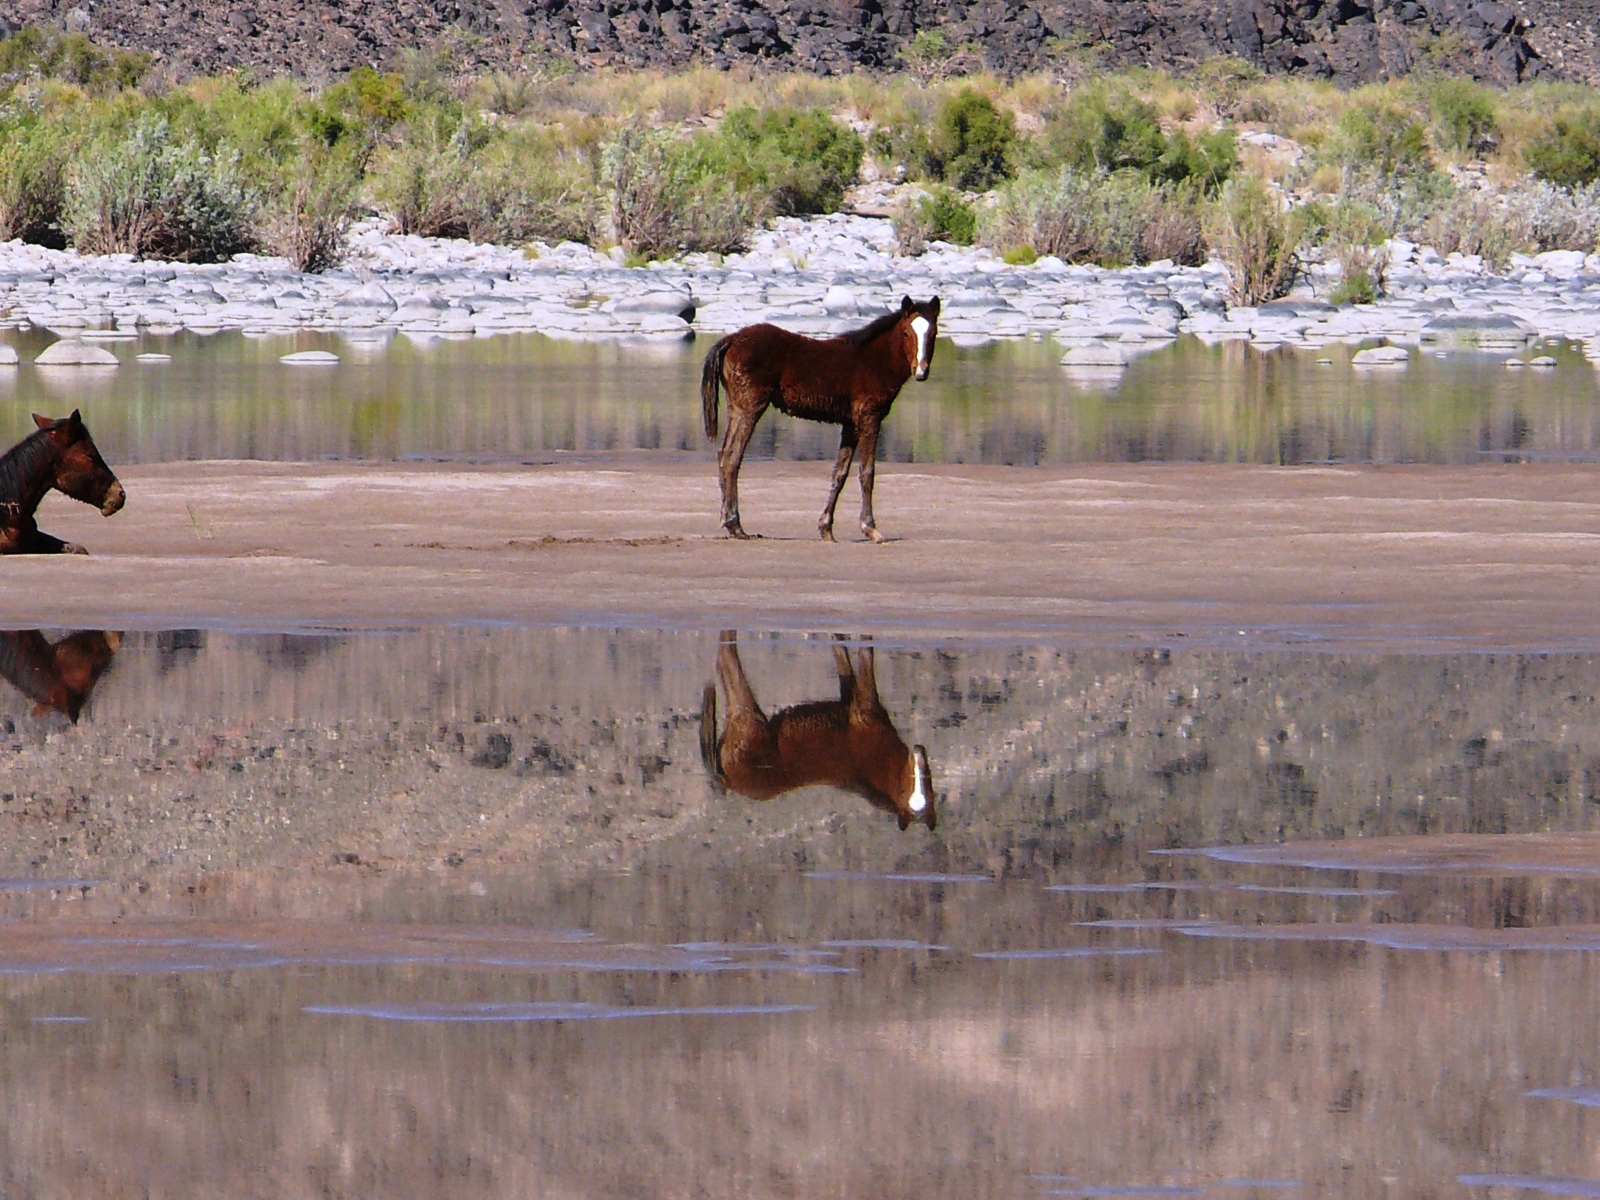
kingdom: Animalia
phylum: Chordata
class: Mammalia
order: Perissodactyla
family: Equidae
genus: Equus
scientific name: Equus caballus
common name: Horse
